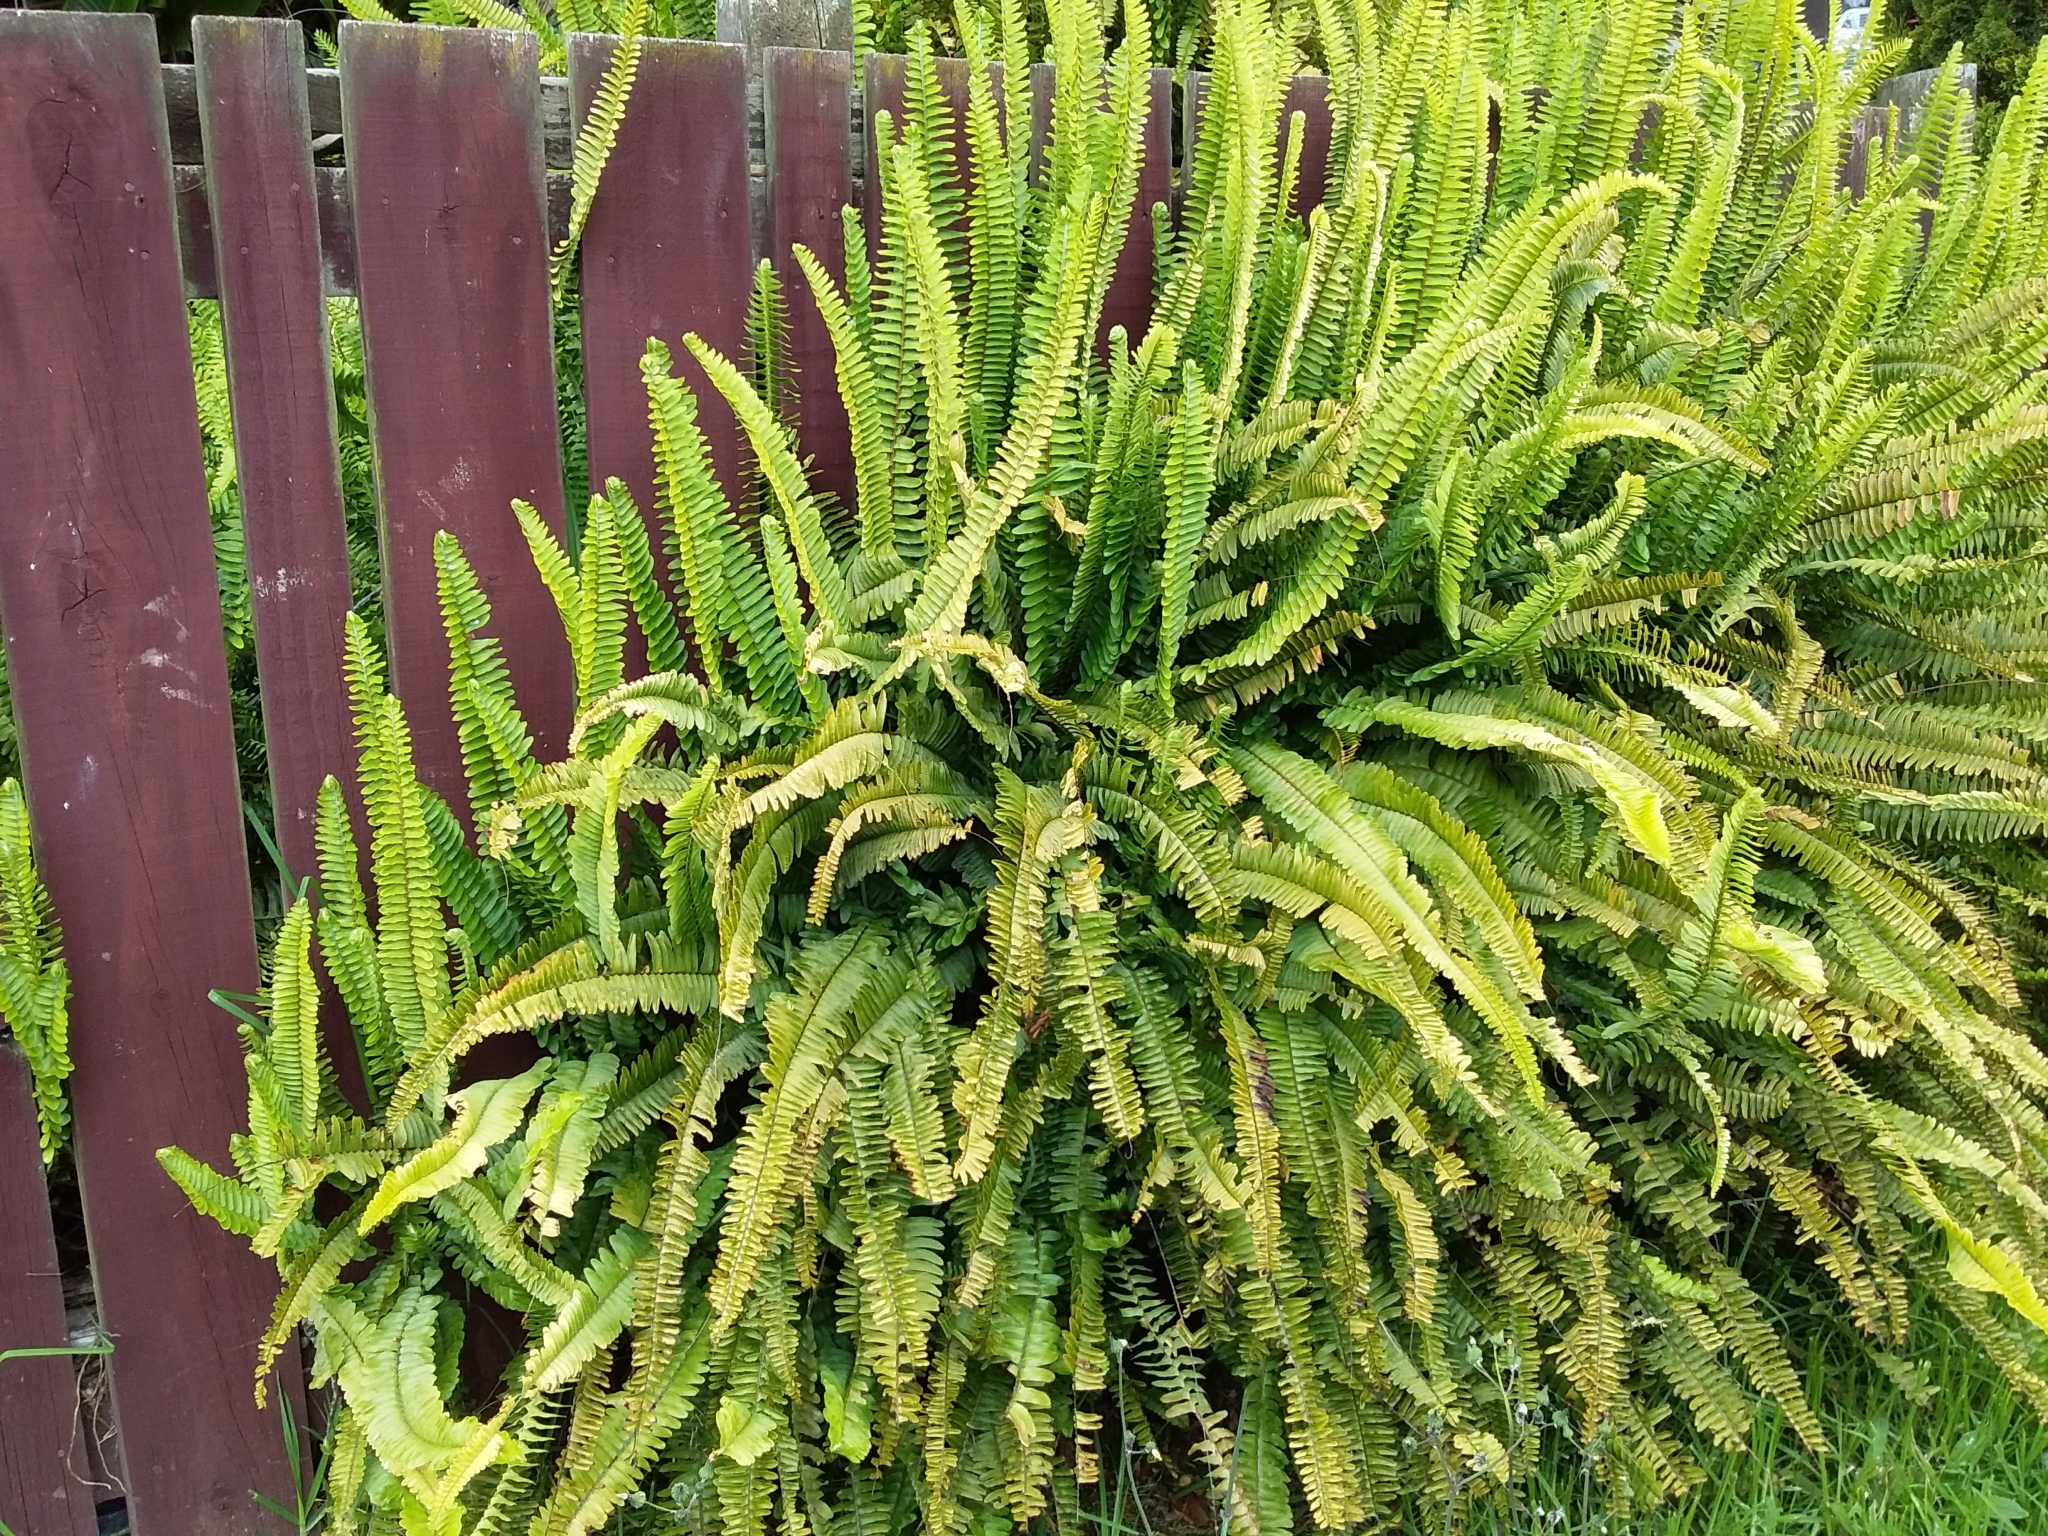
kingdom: Plantae
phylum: Tracheophyta
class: Polypodiopsida
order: Polypodiales
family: Nephrolepidaceae
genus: Nephrolepis
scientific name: Nephrolepis cordifolia
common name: Narrow swordfern
